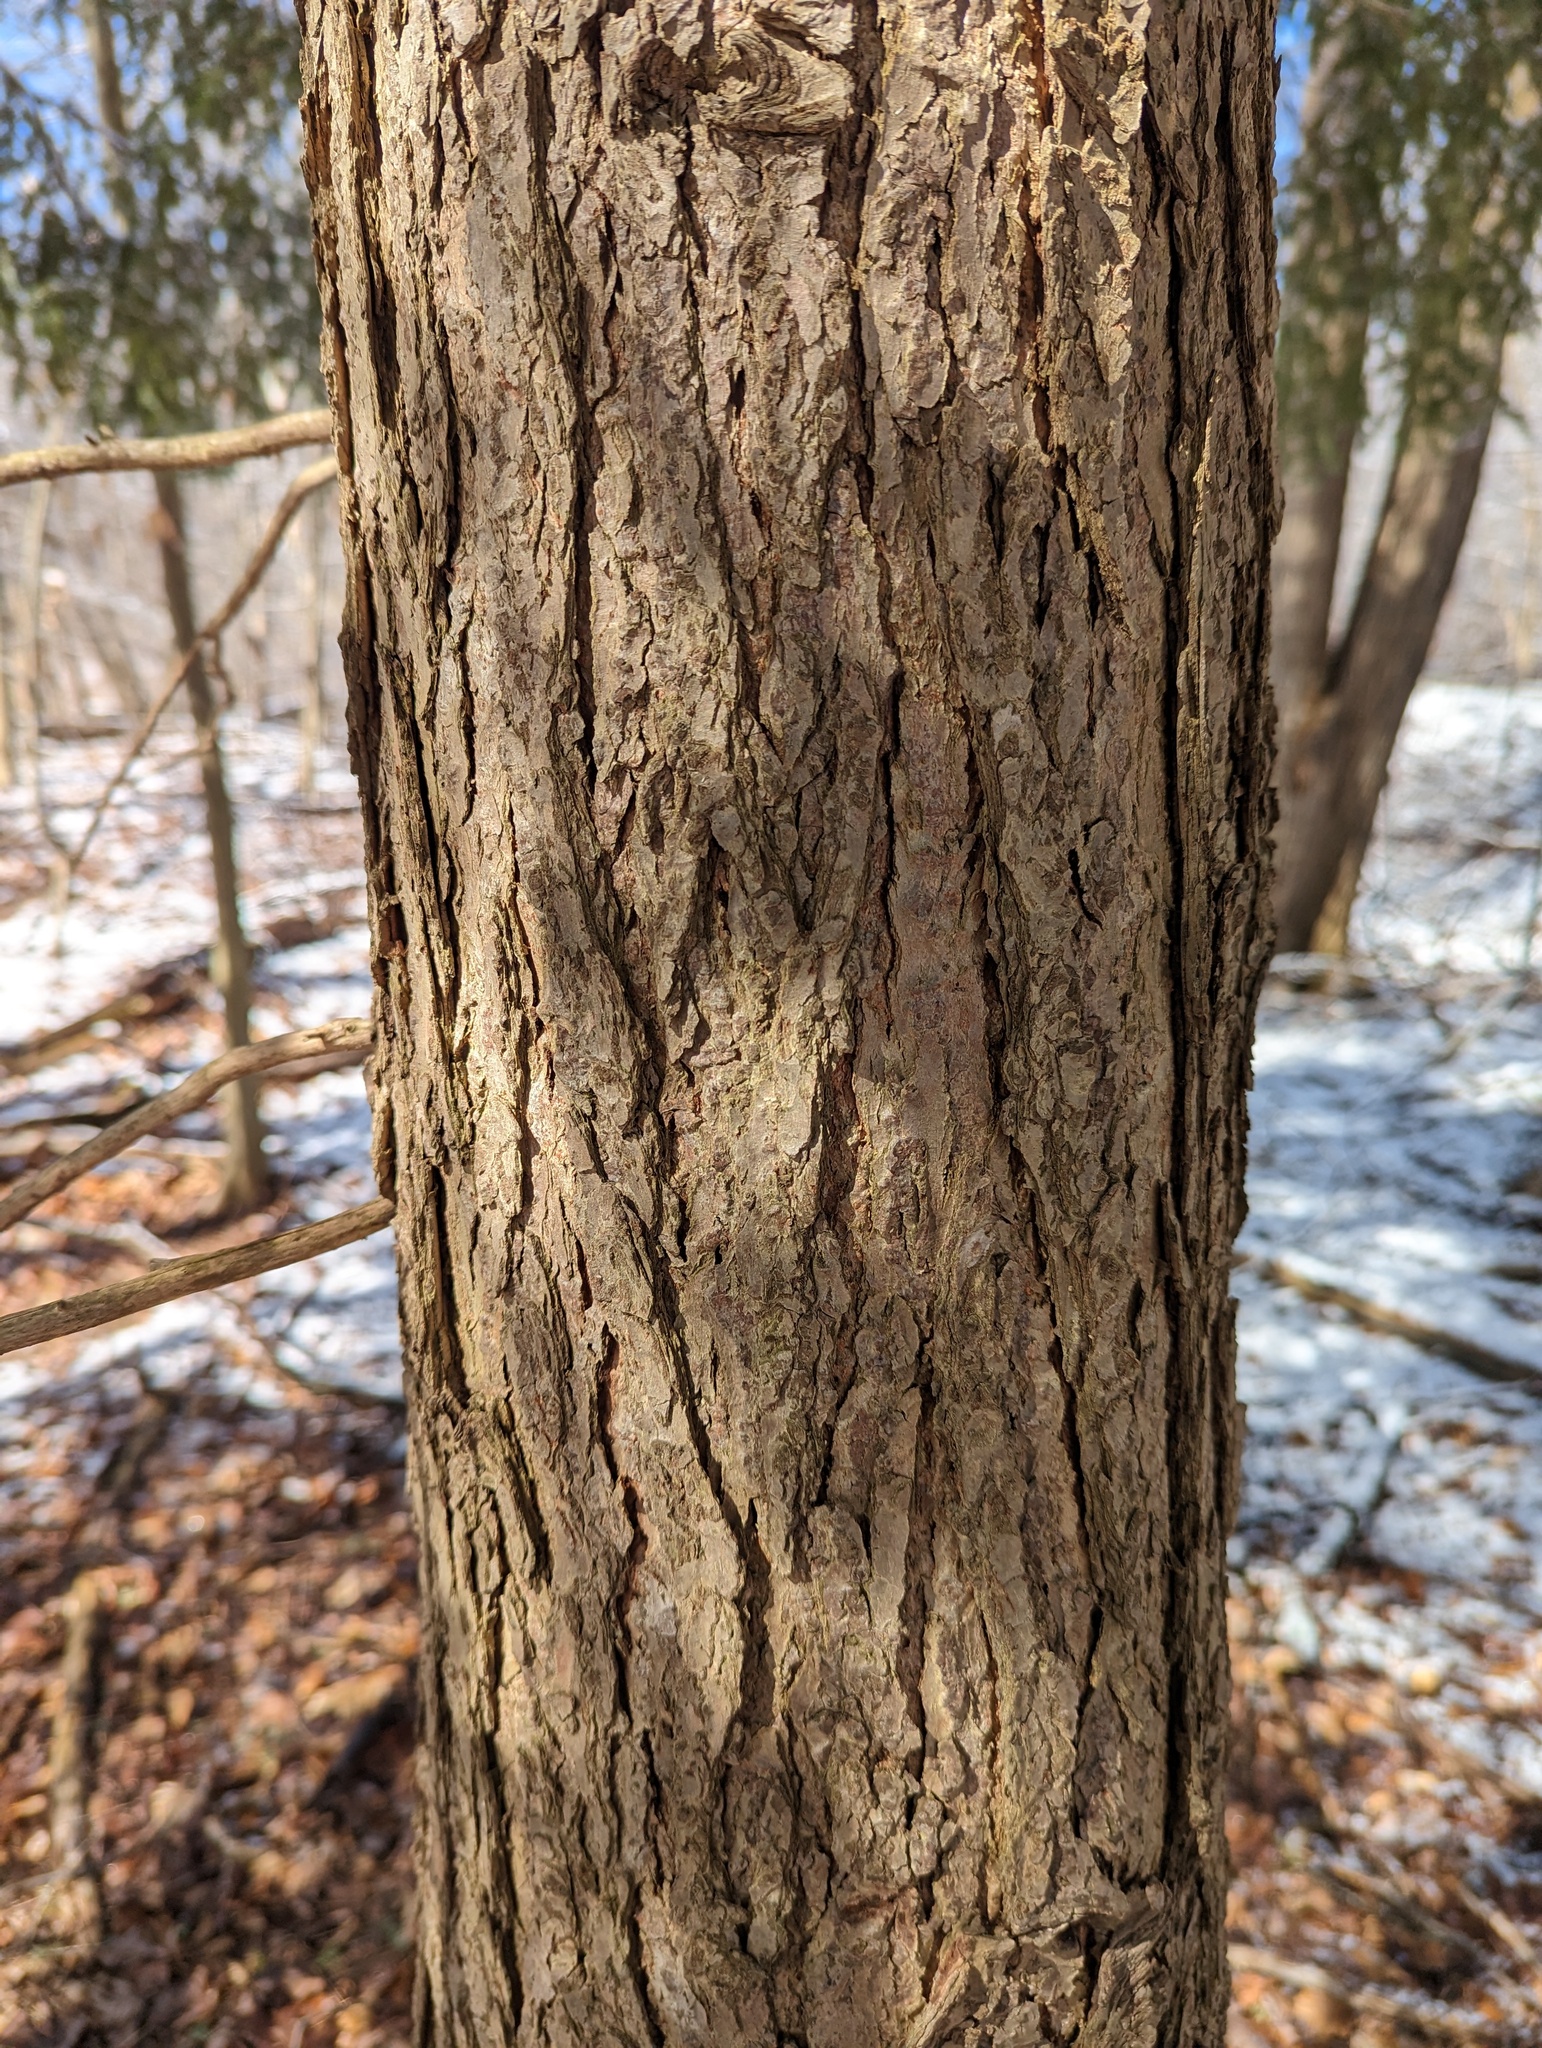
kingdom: Plantae
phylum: Tracheophyta
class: Pinopsida
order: Pinales
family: Pinaceae
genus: Tsuga
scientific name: Tsuga canadensis
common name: Eastern hemlock
